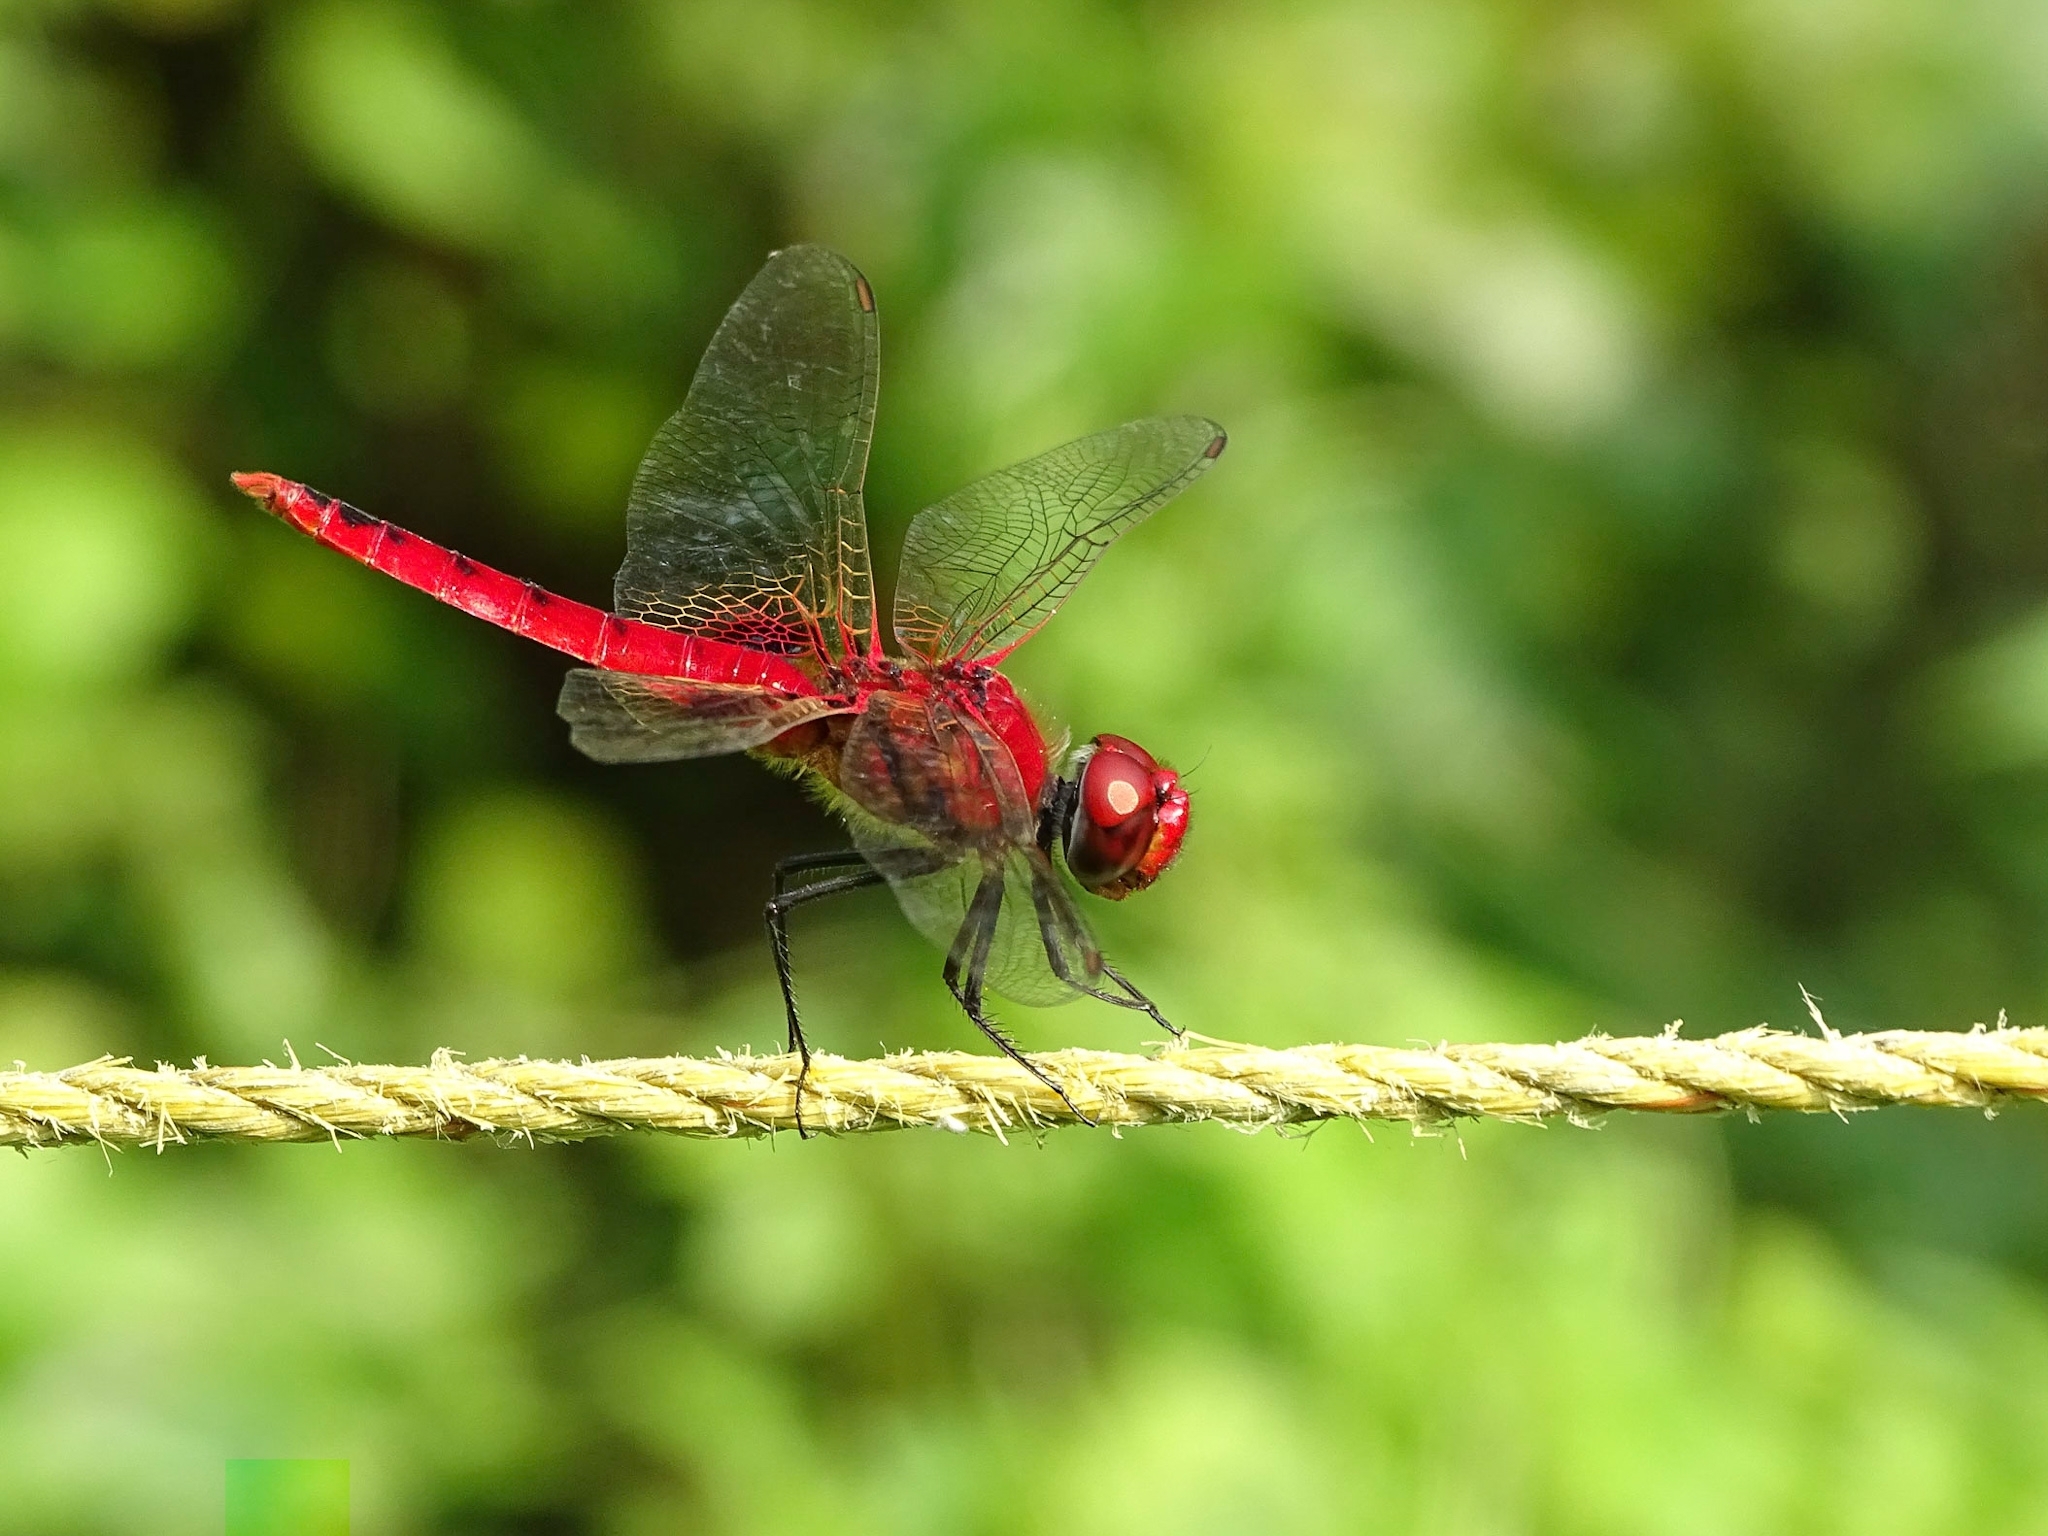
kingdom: Animalia
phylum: Arthropoda
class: Insecta
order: Odonata
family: Libellulidae
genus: Urothemis
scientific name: Urothemis signata
